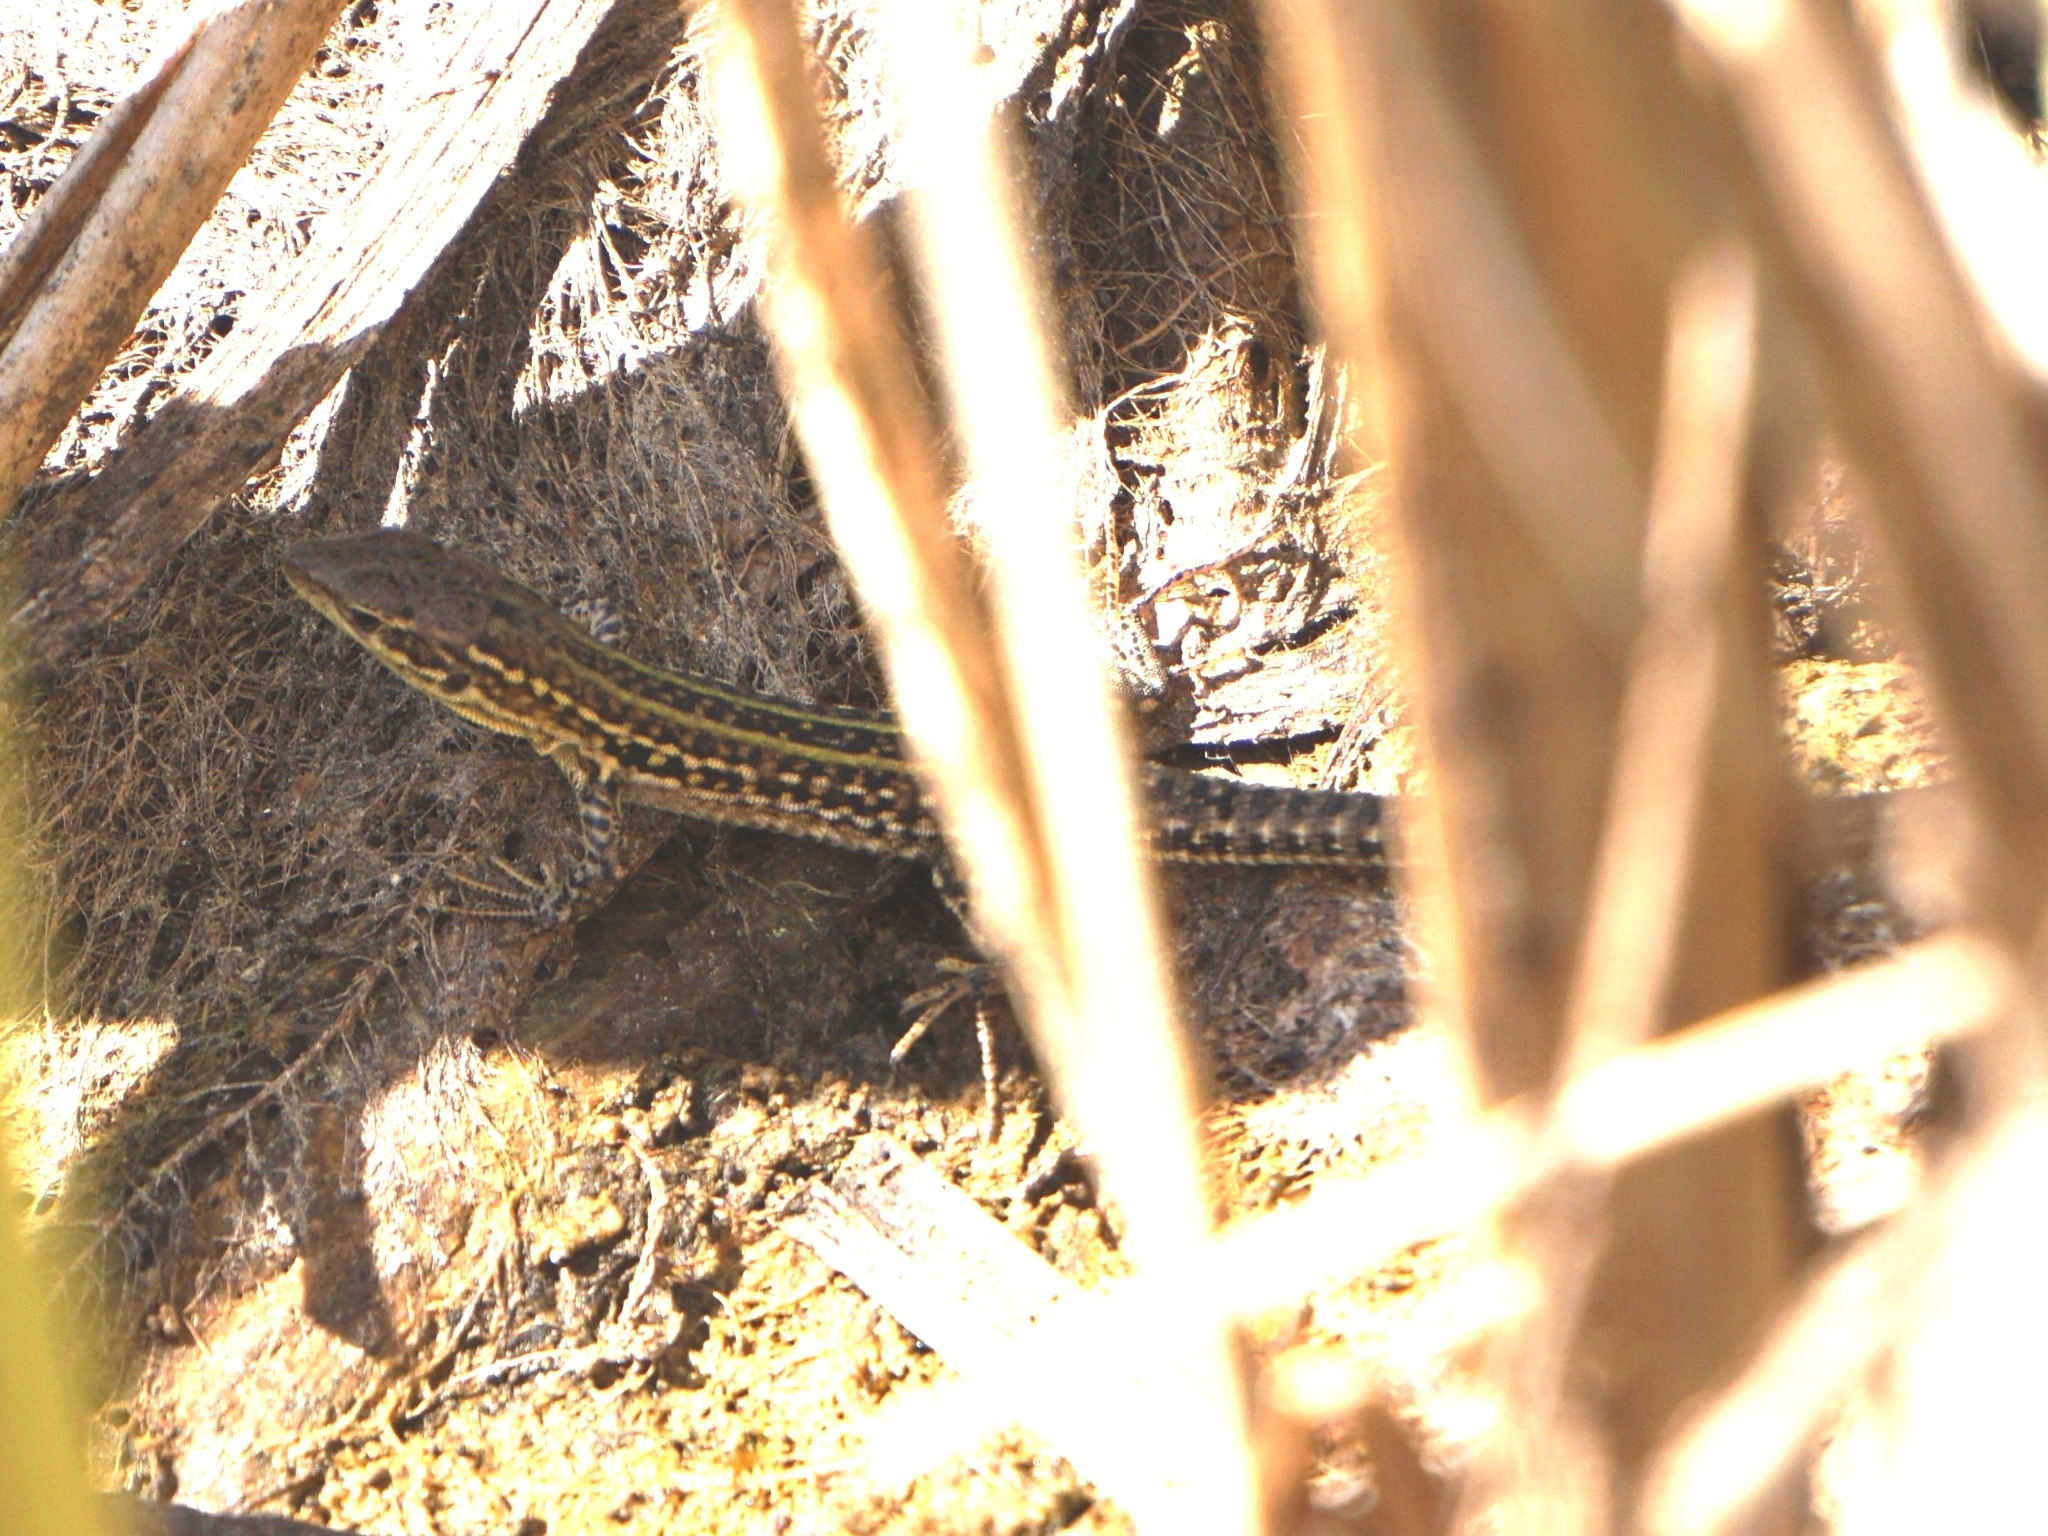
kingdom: Animalia
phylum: Chordata
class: Squamata
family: Lacertidae
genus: Podarcis
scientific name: Podarcis siculus
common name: Italian wall lizard
